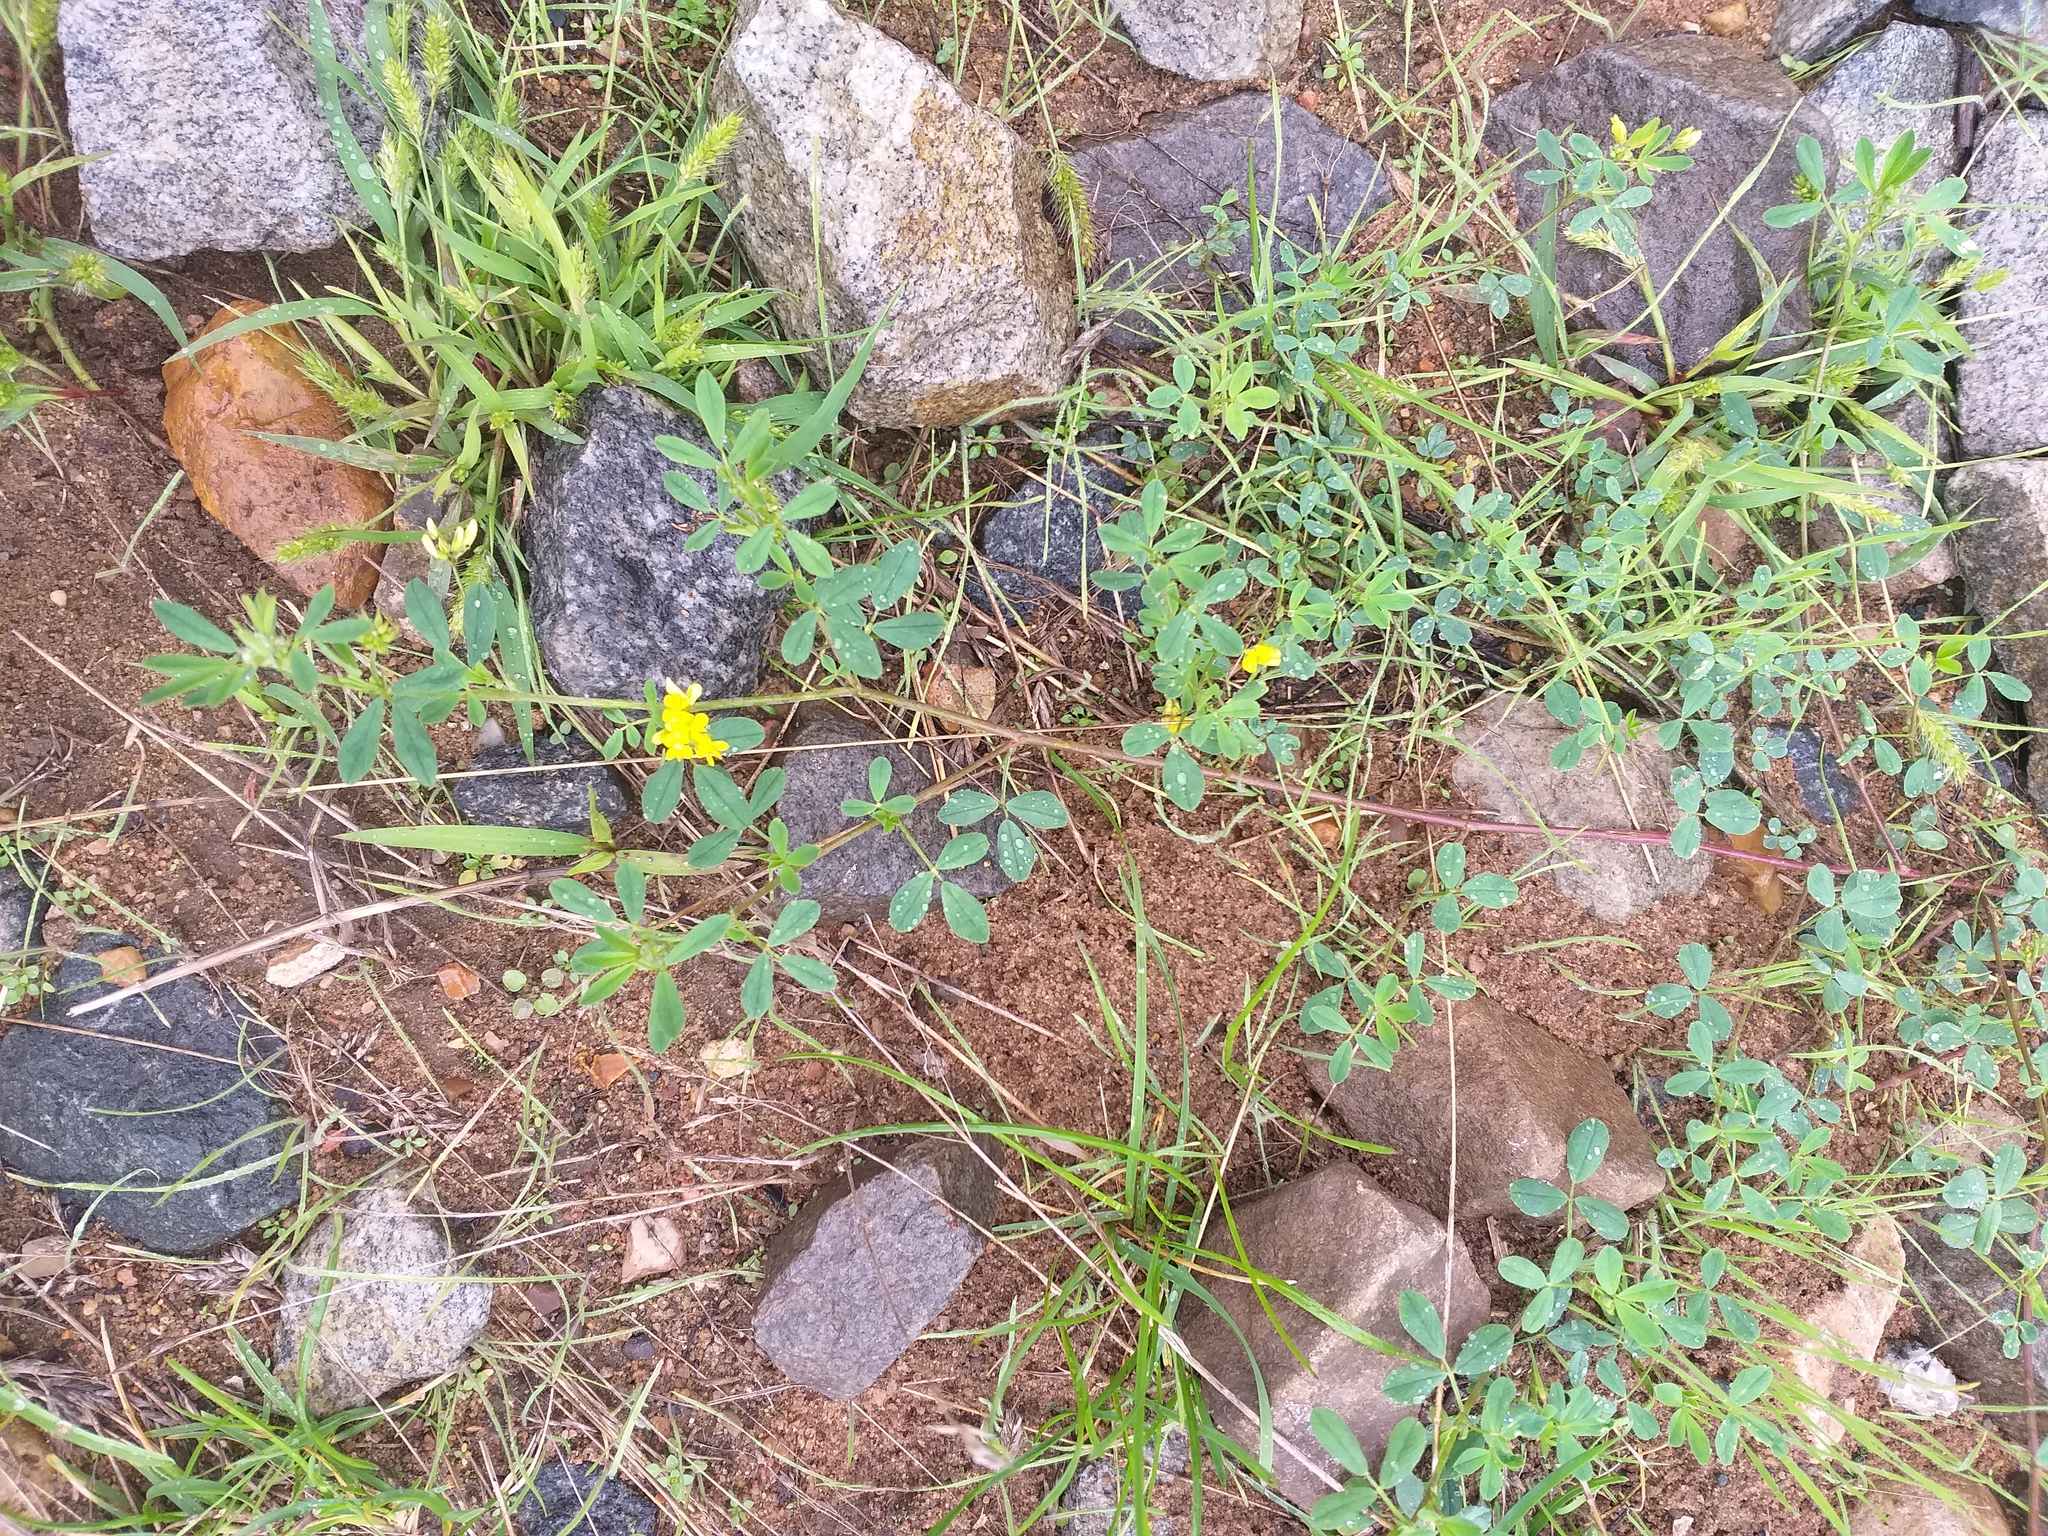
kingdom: Plantae
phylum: Tracheophyta
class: Magnoliopsida
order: Fabales
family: Fabaceae
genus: Medicago
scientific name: Medicago falcata
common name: Sickle medick
